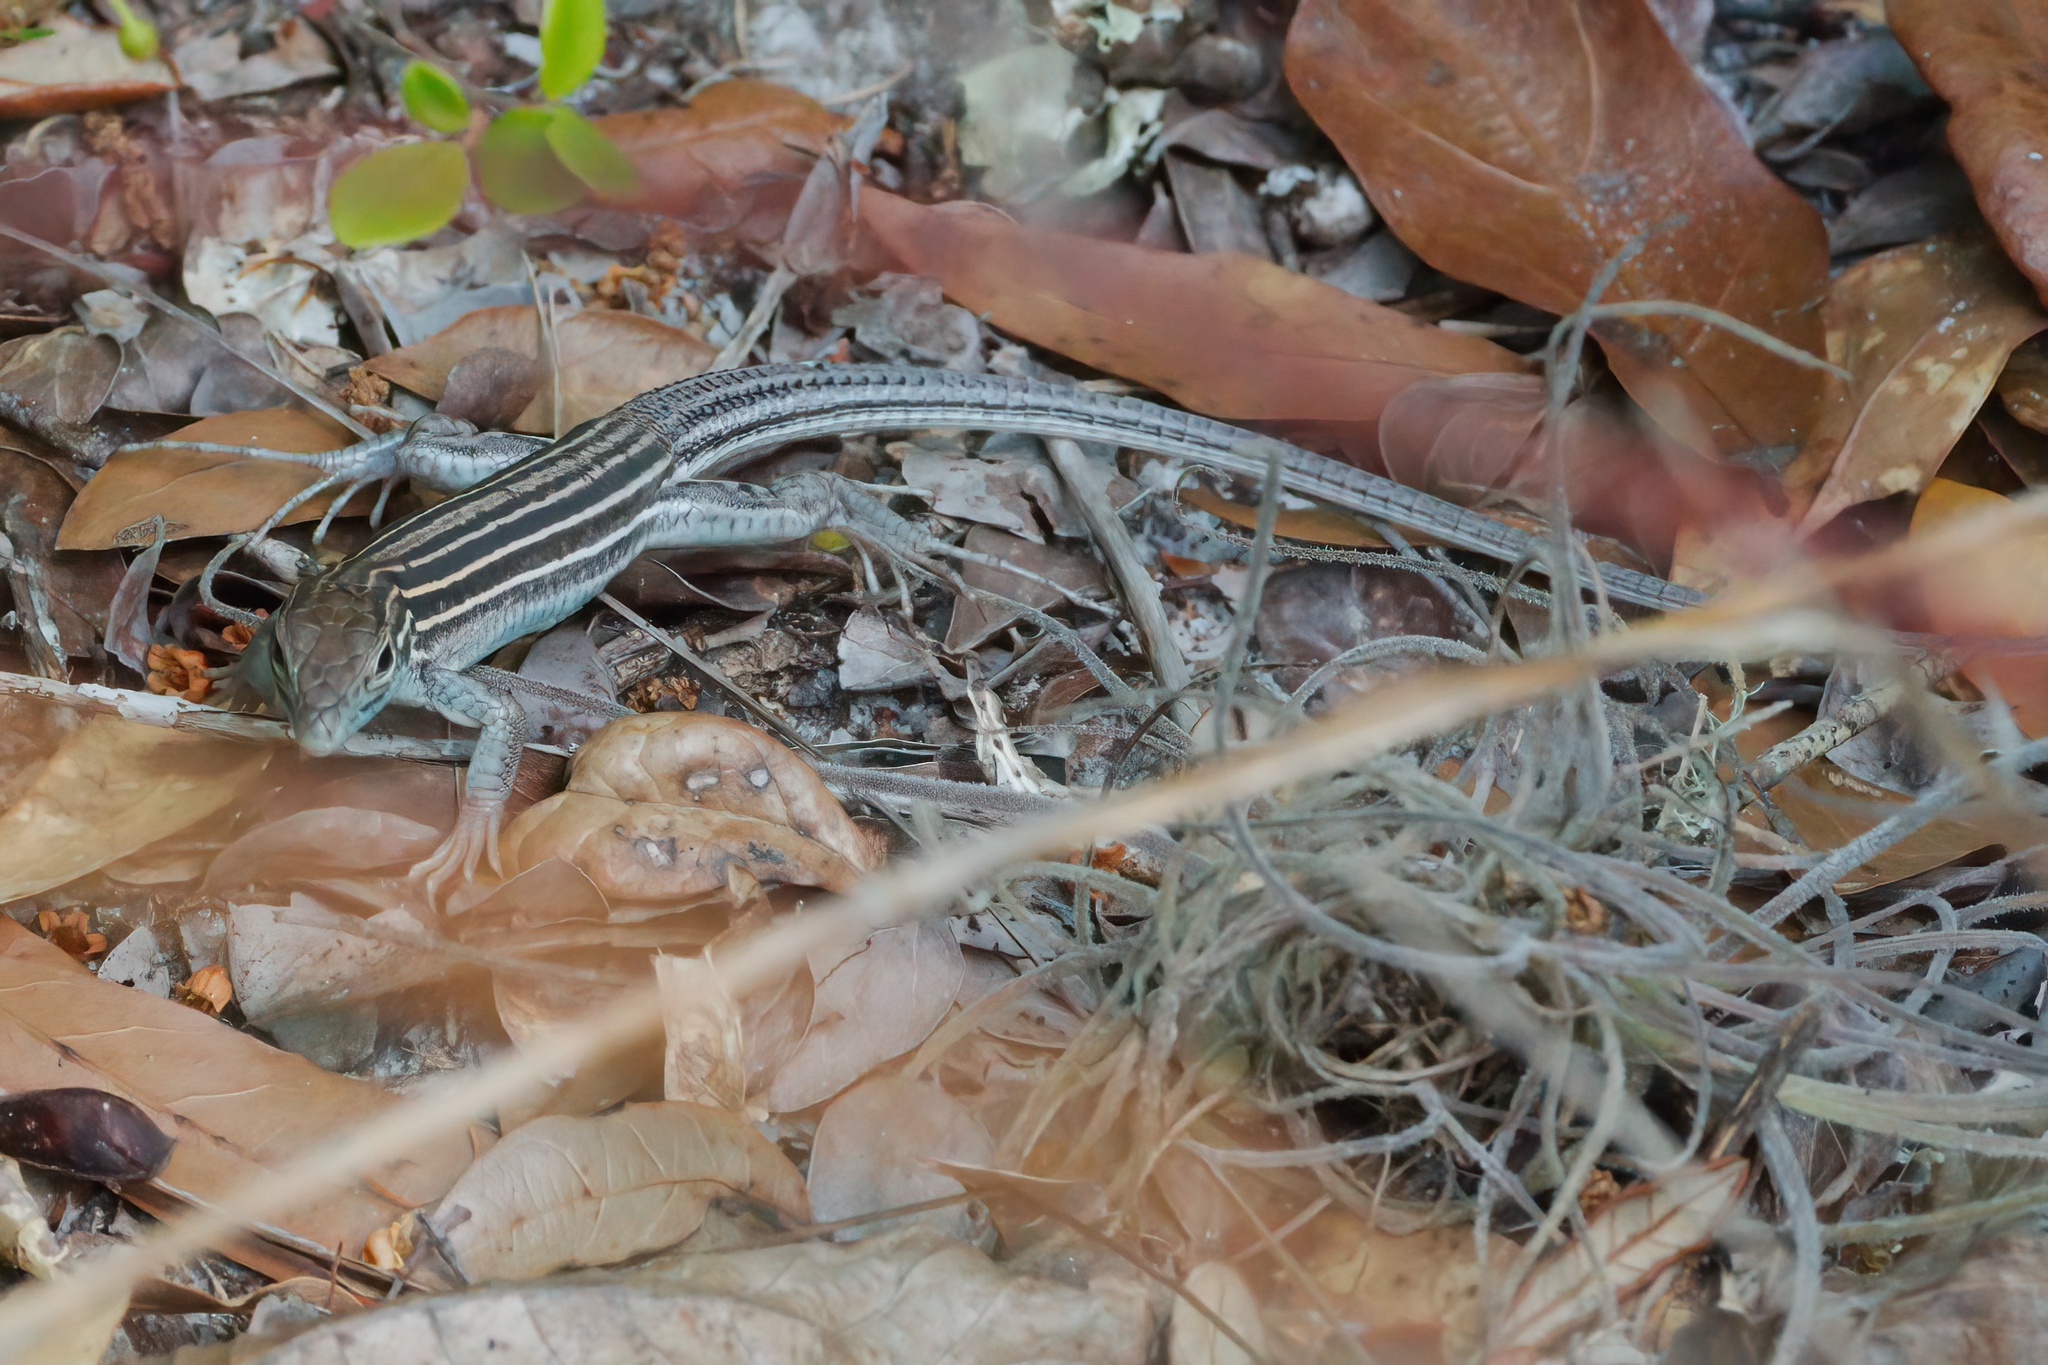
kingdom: Animalia
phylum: Chordata
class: Squamata
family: Teiidae
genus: Aspidoscelis
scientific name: Aspidoscelis sexlineatus
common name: Six-lined racerunner
